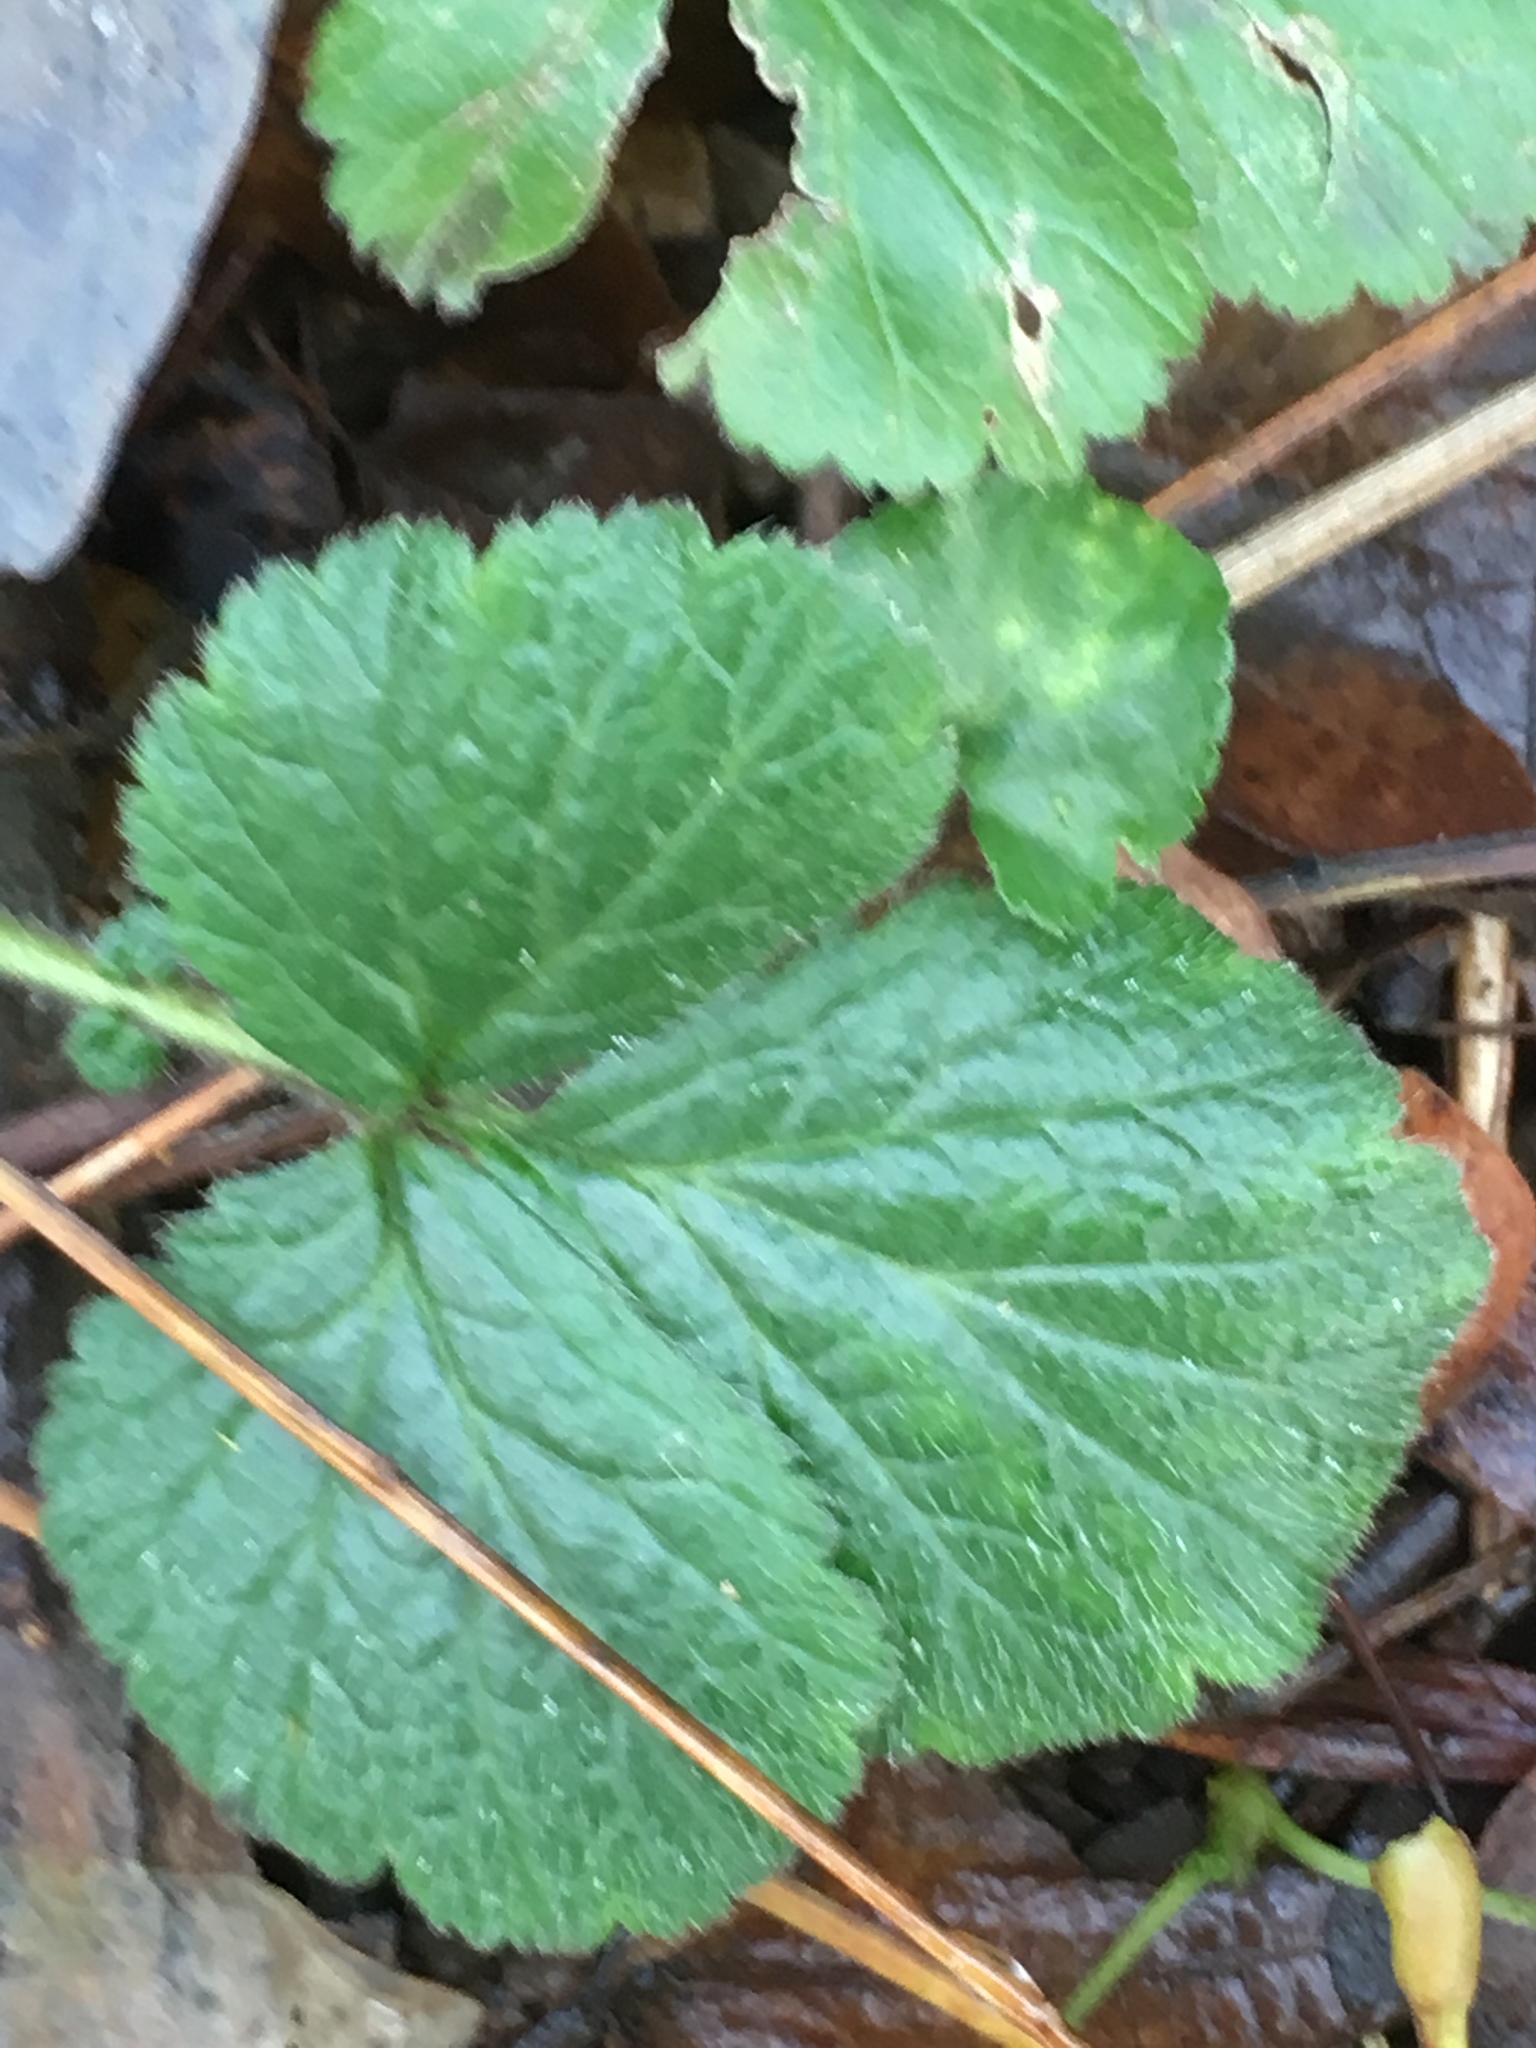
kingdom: Plantae
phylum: Tracheophyta
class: Magnoliopsida
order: Rosales
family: Rosaceae
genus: Geum
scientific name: Geum urbanum
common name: Wood avens
